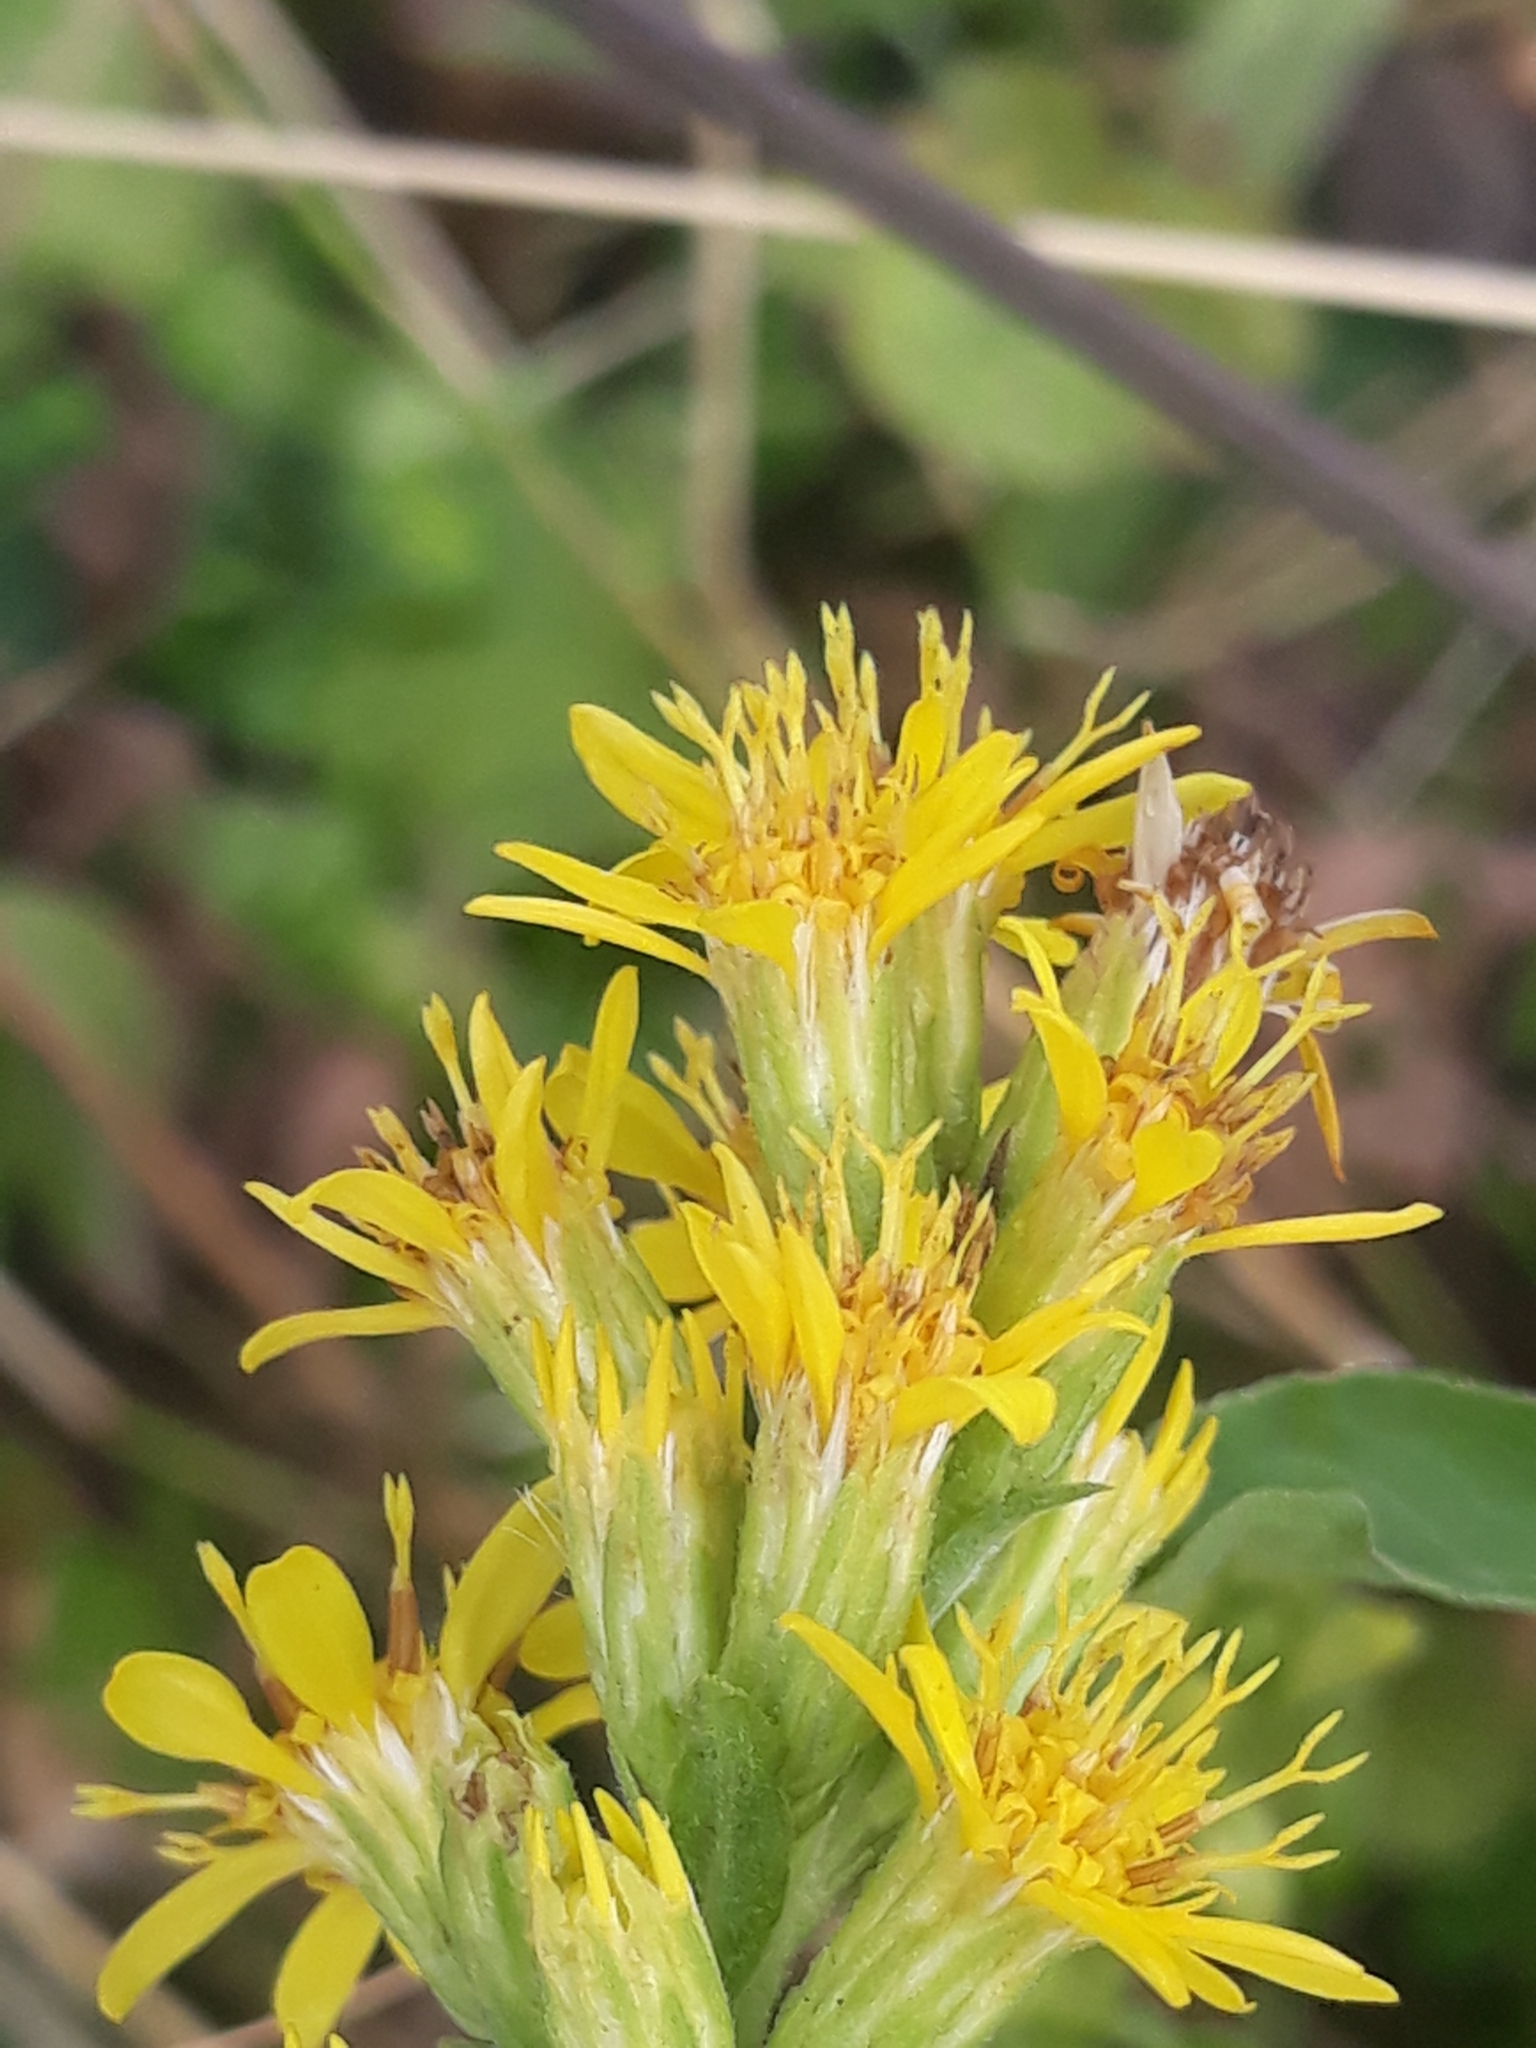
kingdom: Plantae
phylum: Tracheophyta
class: Magnoliopsida
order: Asterales
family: Asteraceae
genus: Solidago
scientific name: Solidago virgaurea
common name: Goldenrod
